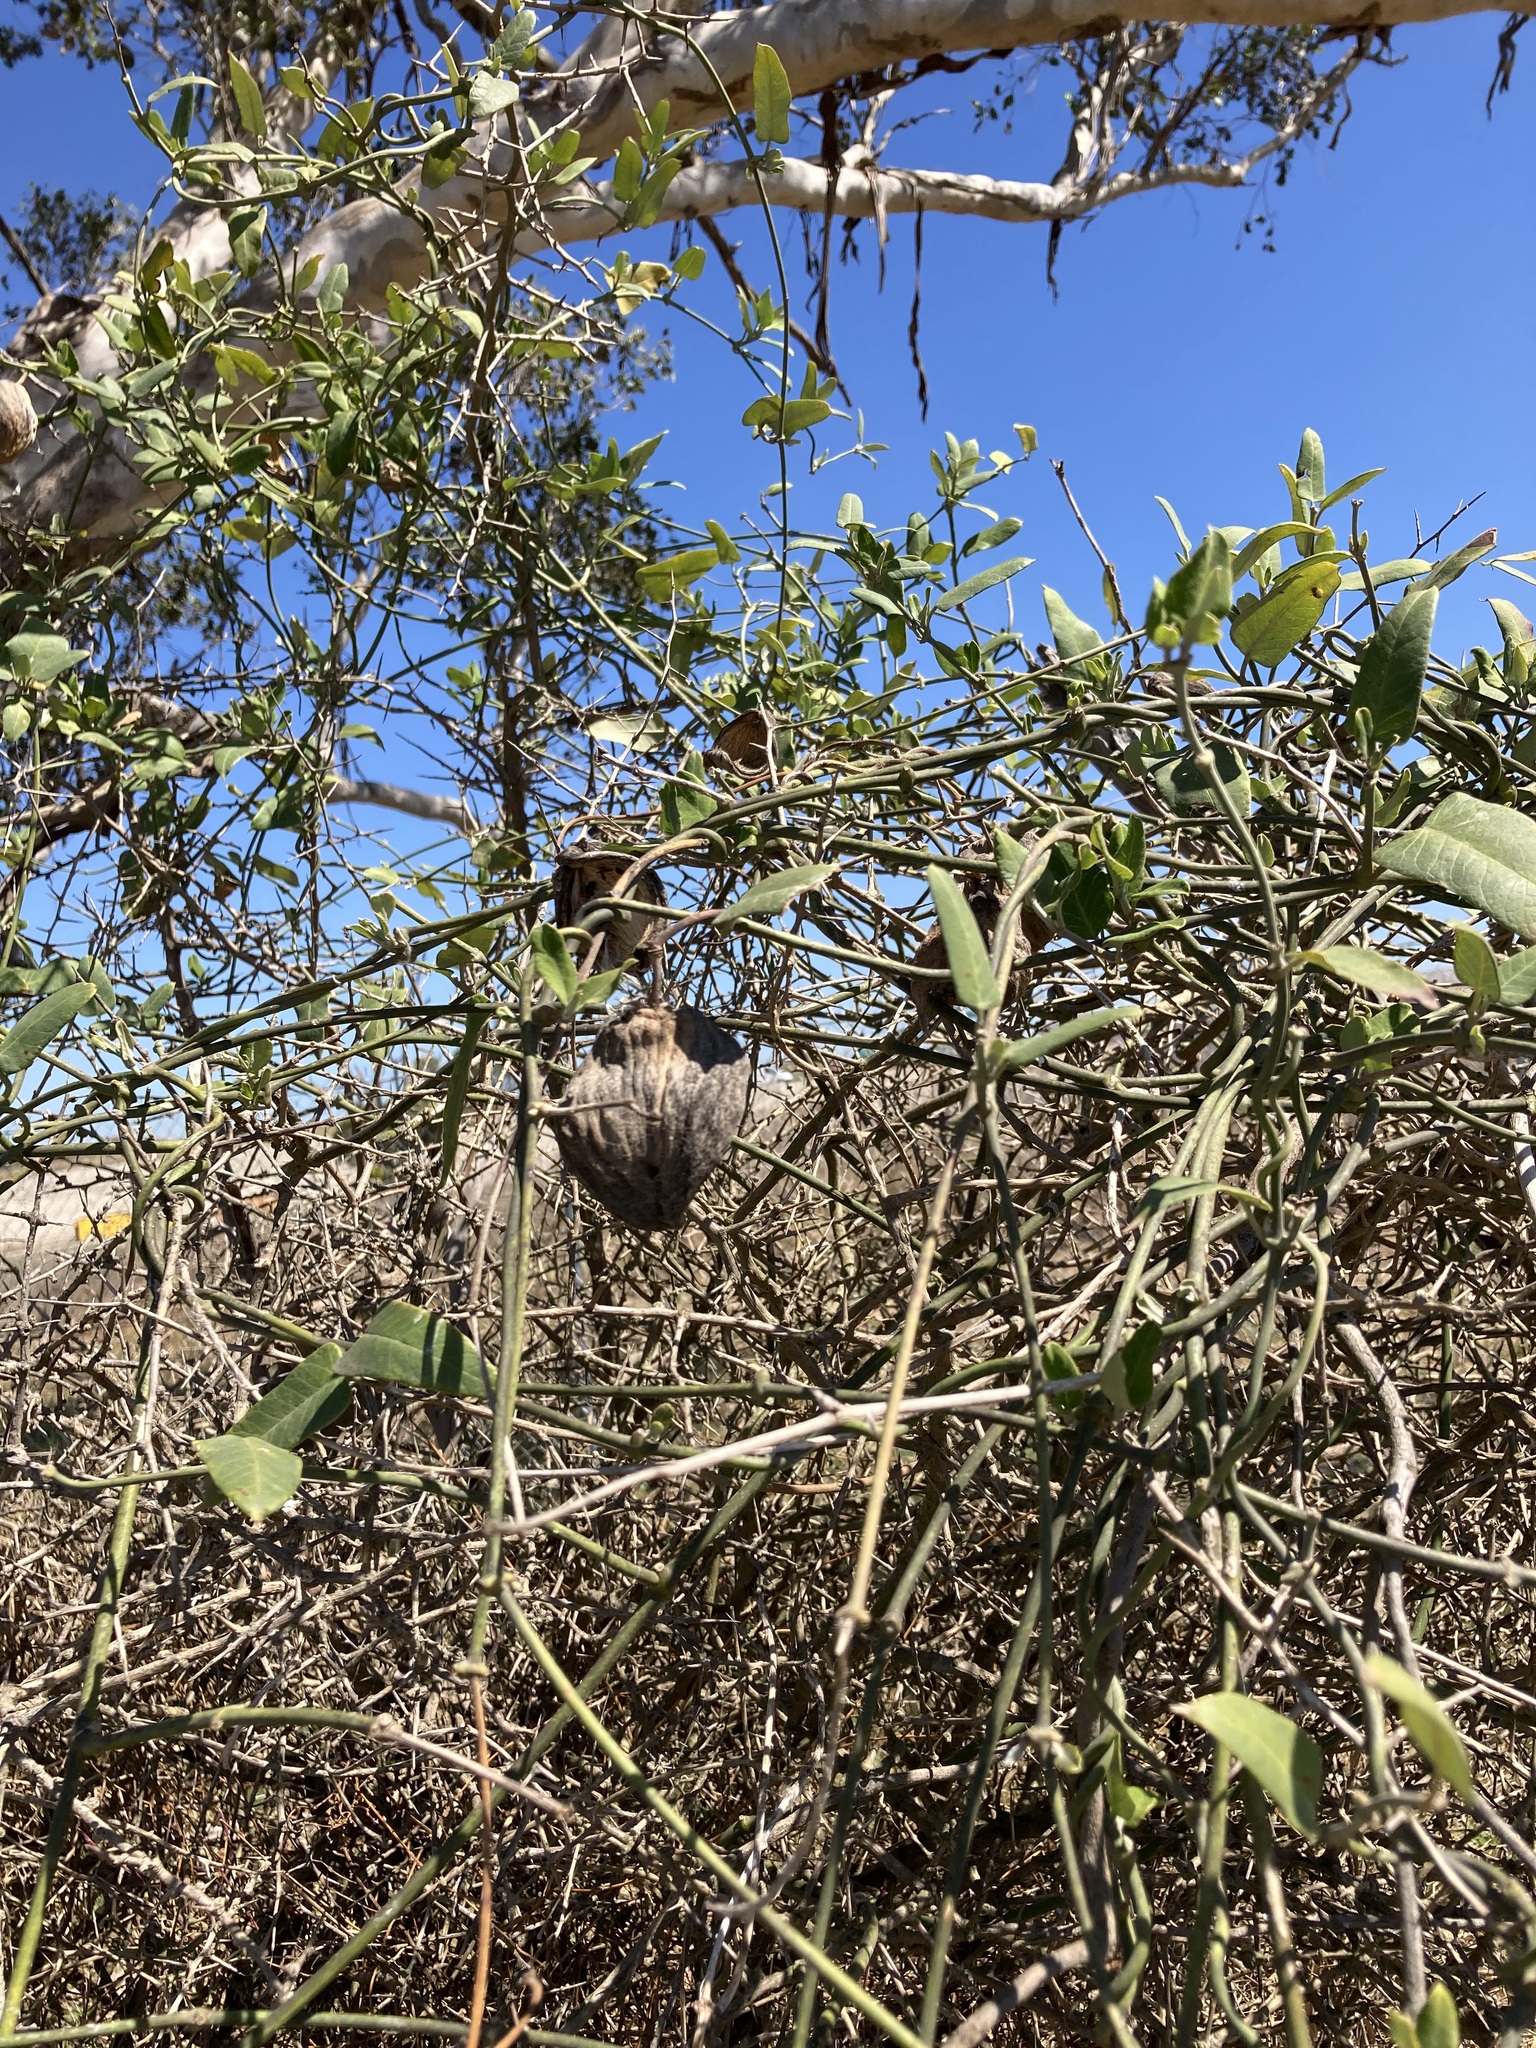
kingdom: Plantae
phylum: Tracheophyta
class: Magnoliopsida
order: Gentianales
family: Apocynaceae
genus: Araujia
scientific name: Araujia sericifera
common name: White bladderflower
